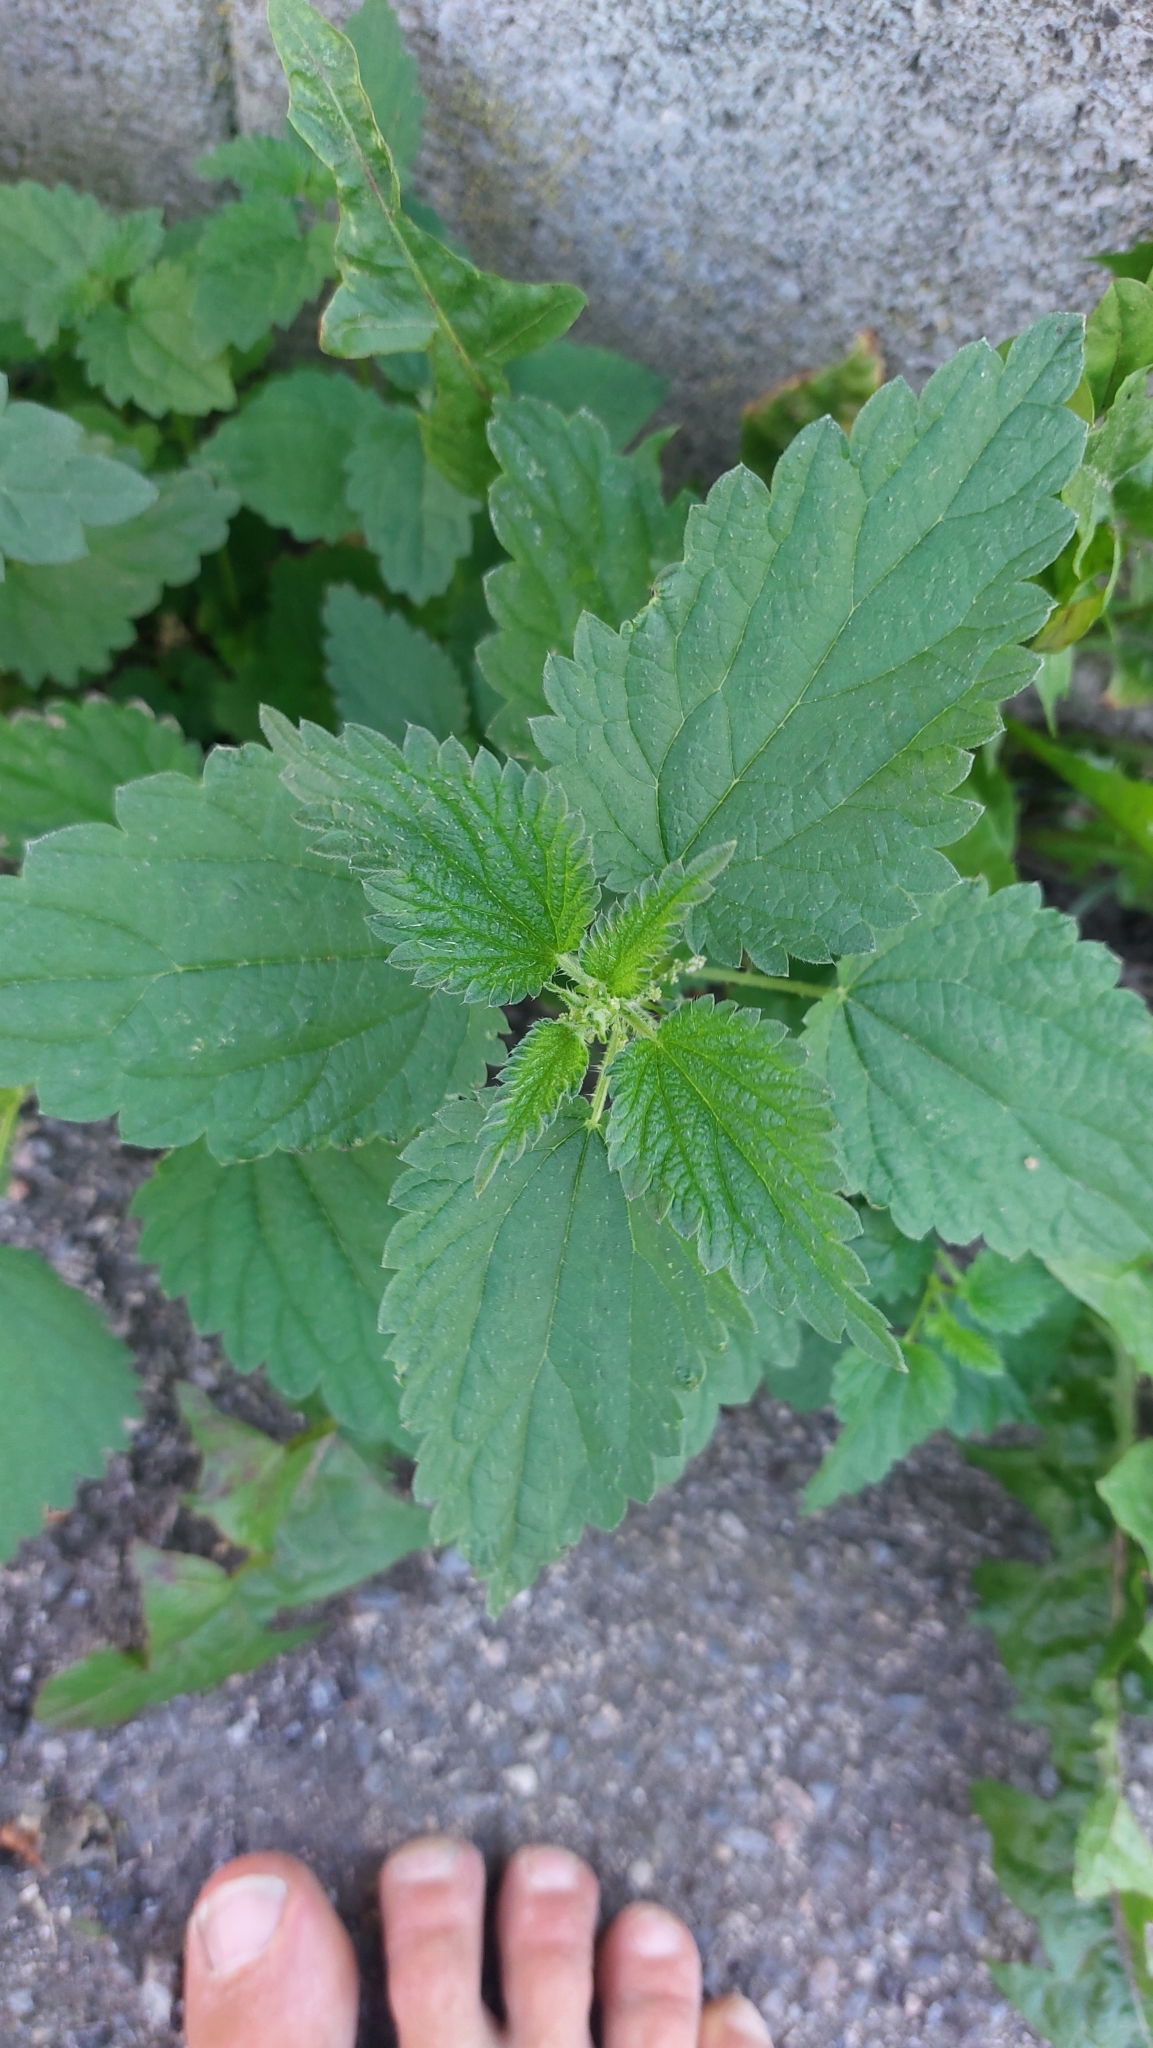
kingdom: Plantae
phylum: Tracheophyta
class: Magnoliopsida
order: Rosales
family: Urticaceae
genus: Urtica
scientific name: Urtica dioica
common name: Common nettle
